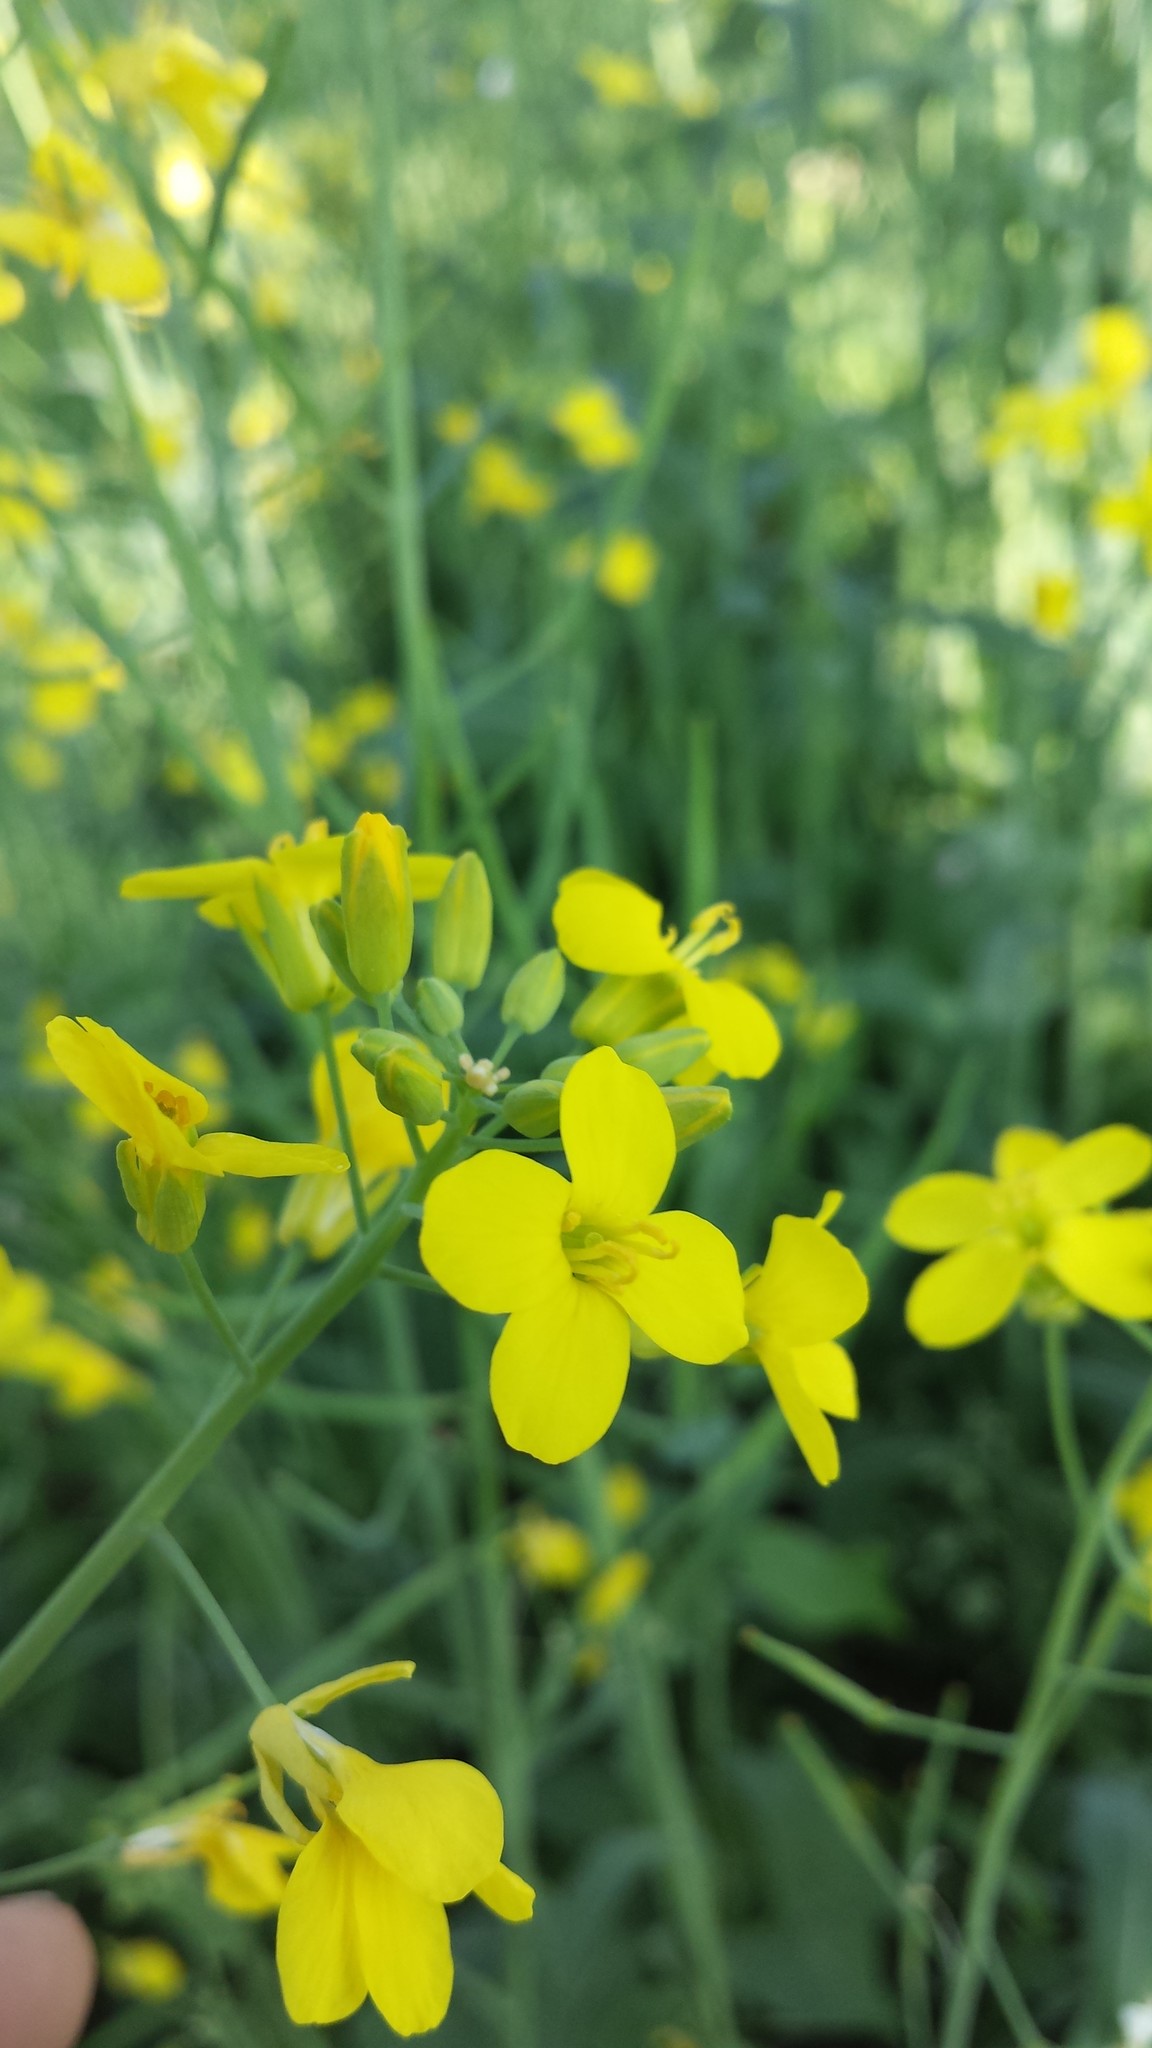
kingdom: Plantae
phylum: Tracheophyta
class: Magnoliopsida
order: Brassicales
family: Brassicaceae
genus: Brassica
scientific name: Brassica rapa
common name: Field mustard
